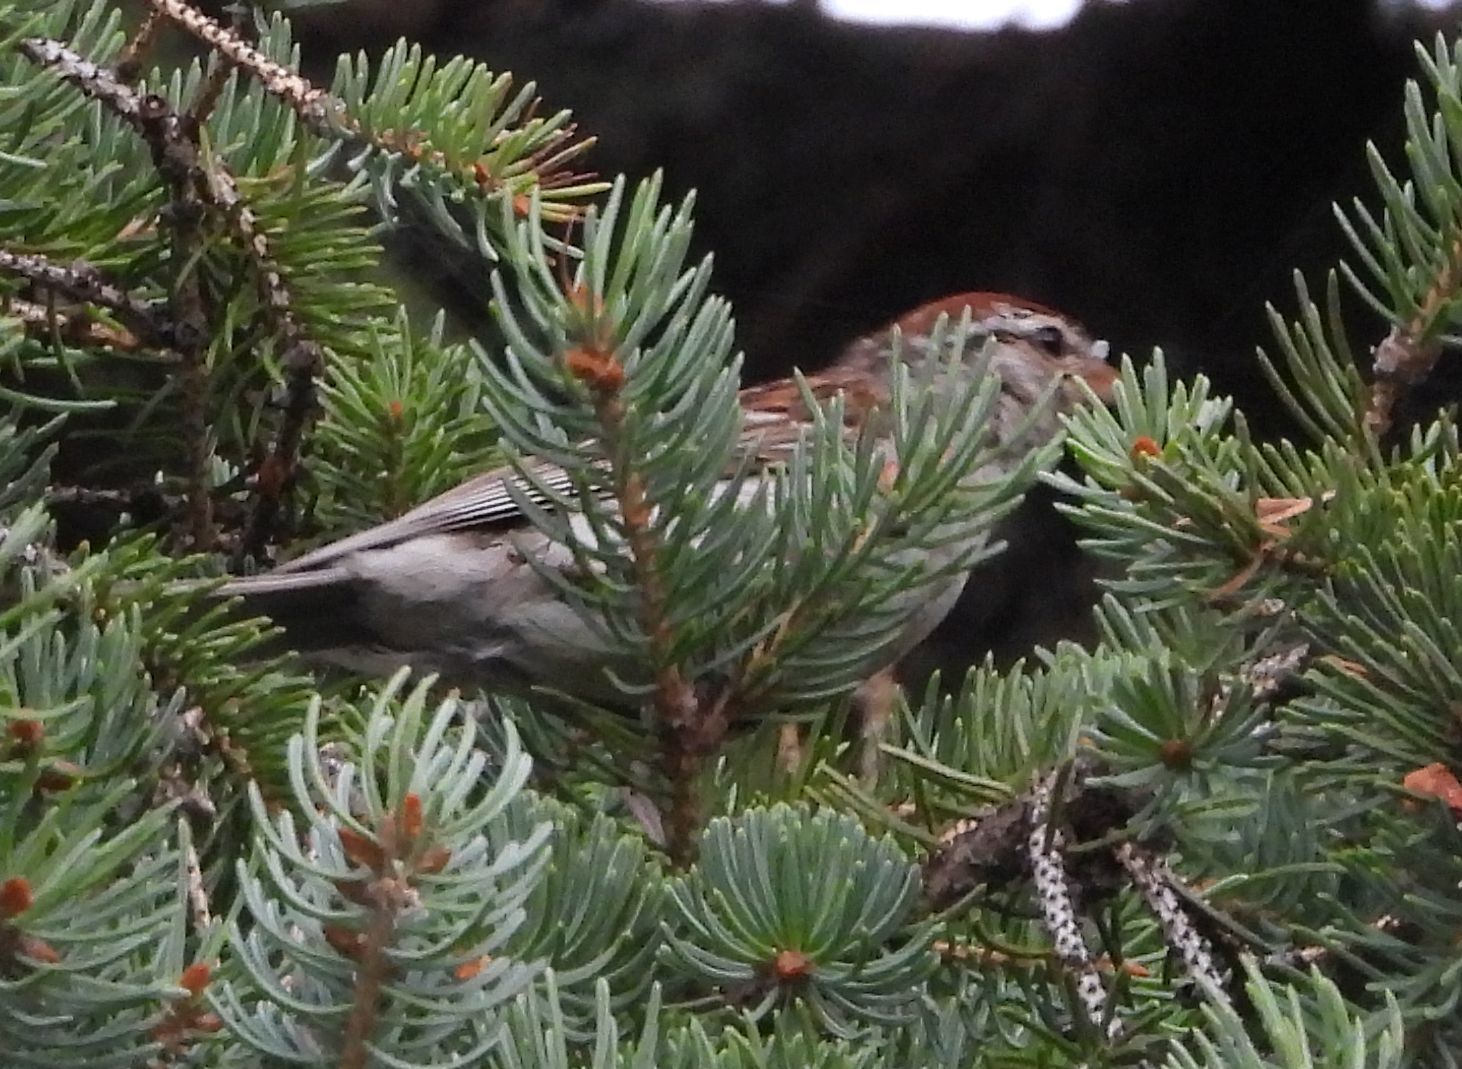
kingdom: Animalia
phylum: Chordata
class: Aves
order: Passeriformes
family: Passerellidae
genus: Spizella
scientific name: Spizella passerina
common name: Chipping sparrow
